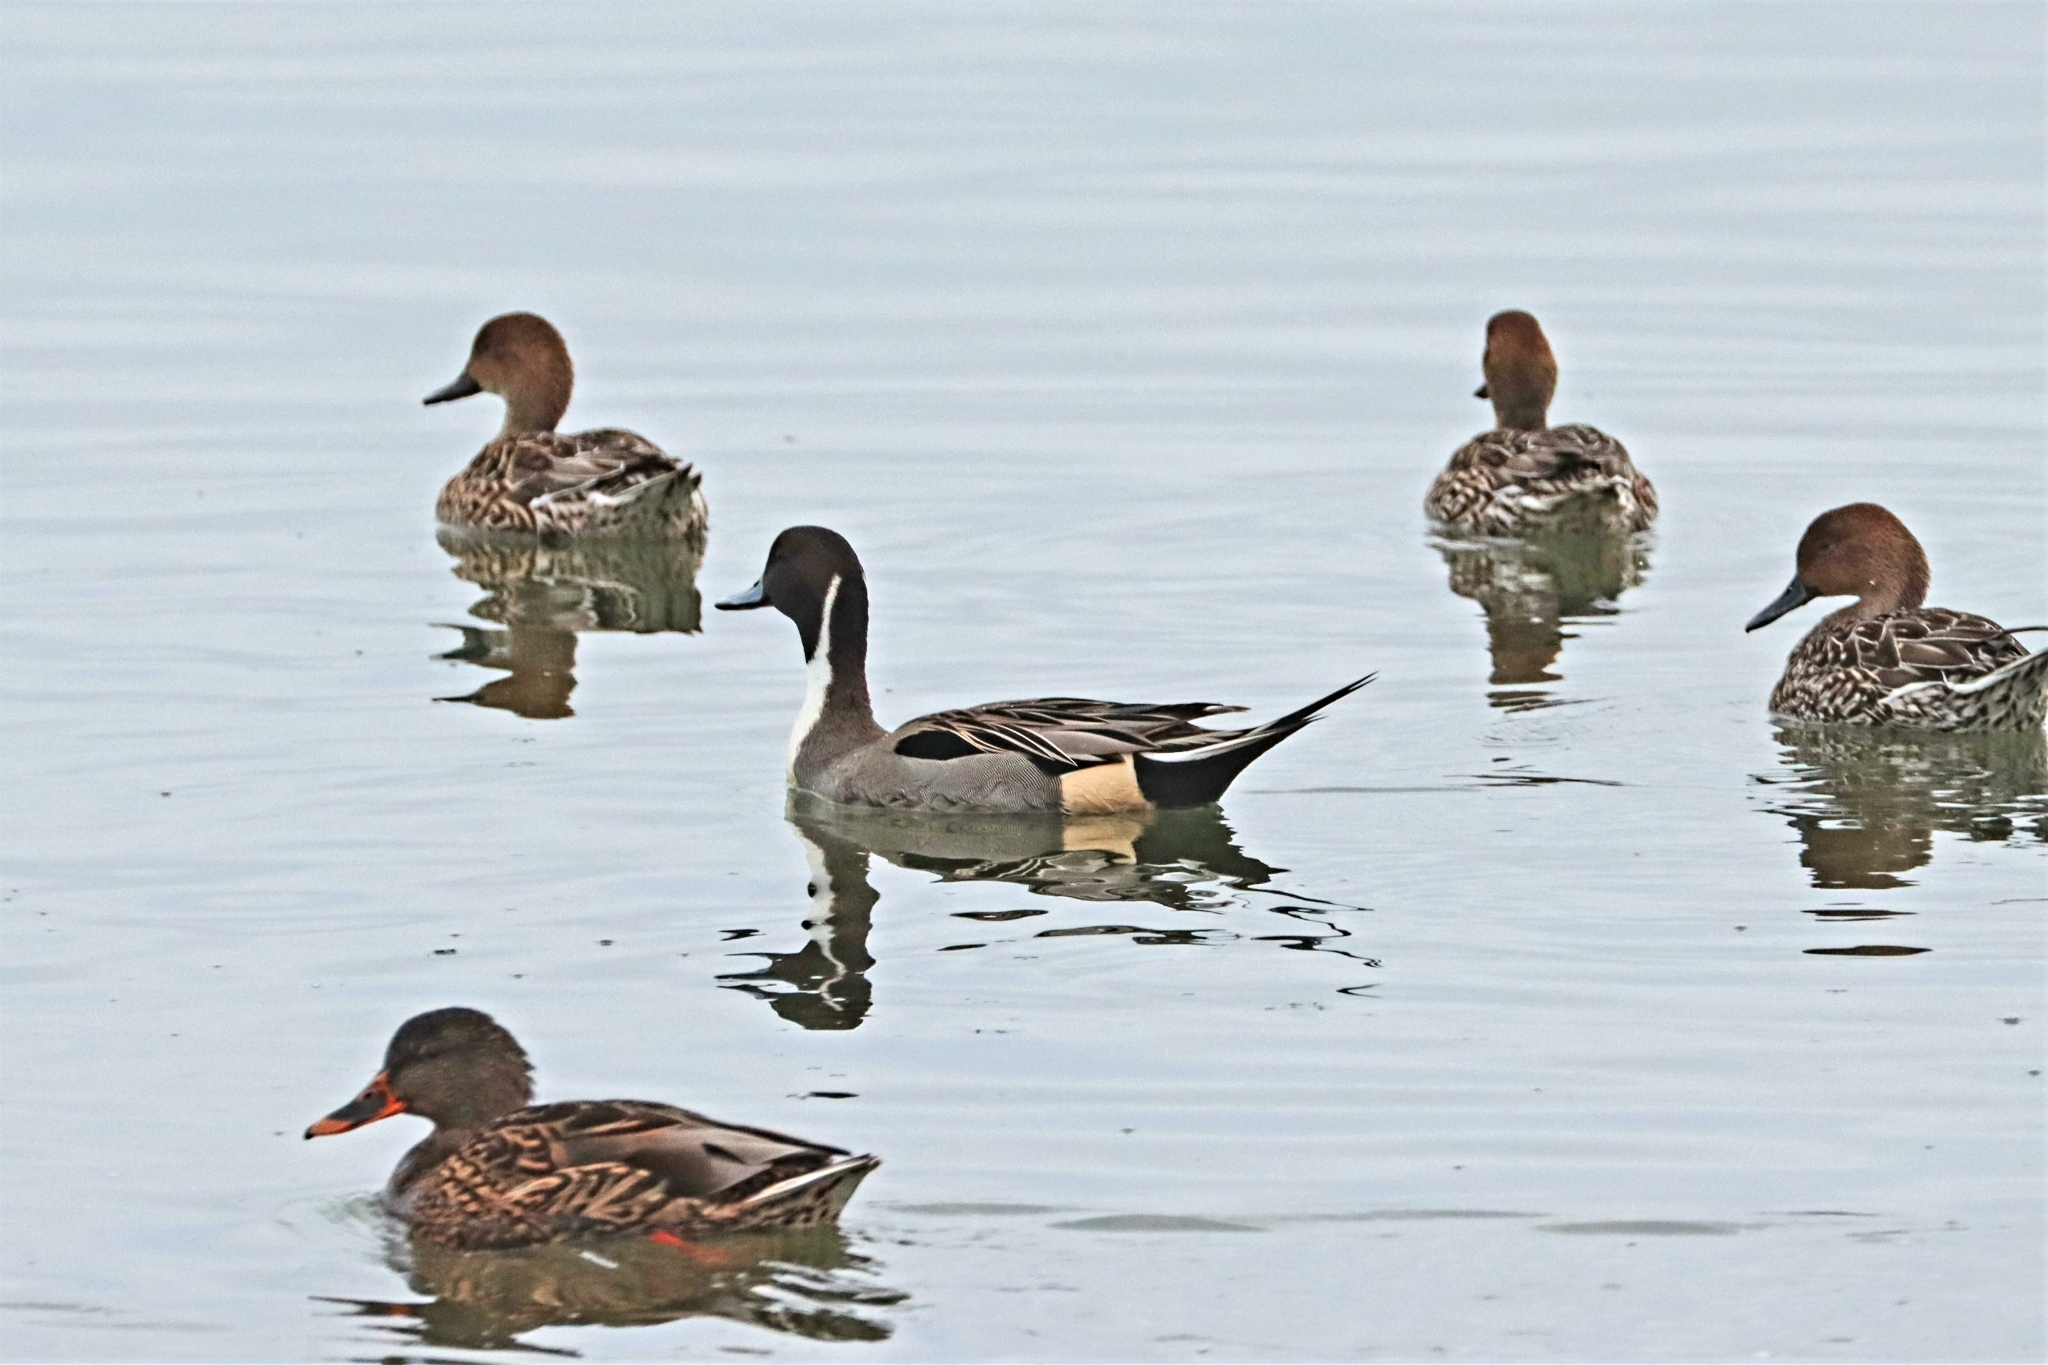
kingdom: Animalia
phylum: Chordata
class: Aves
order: Anseriformes
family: Anatidae
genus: Anas
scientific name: Anas acuta
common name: Northern pintail
